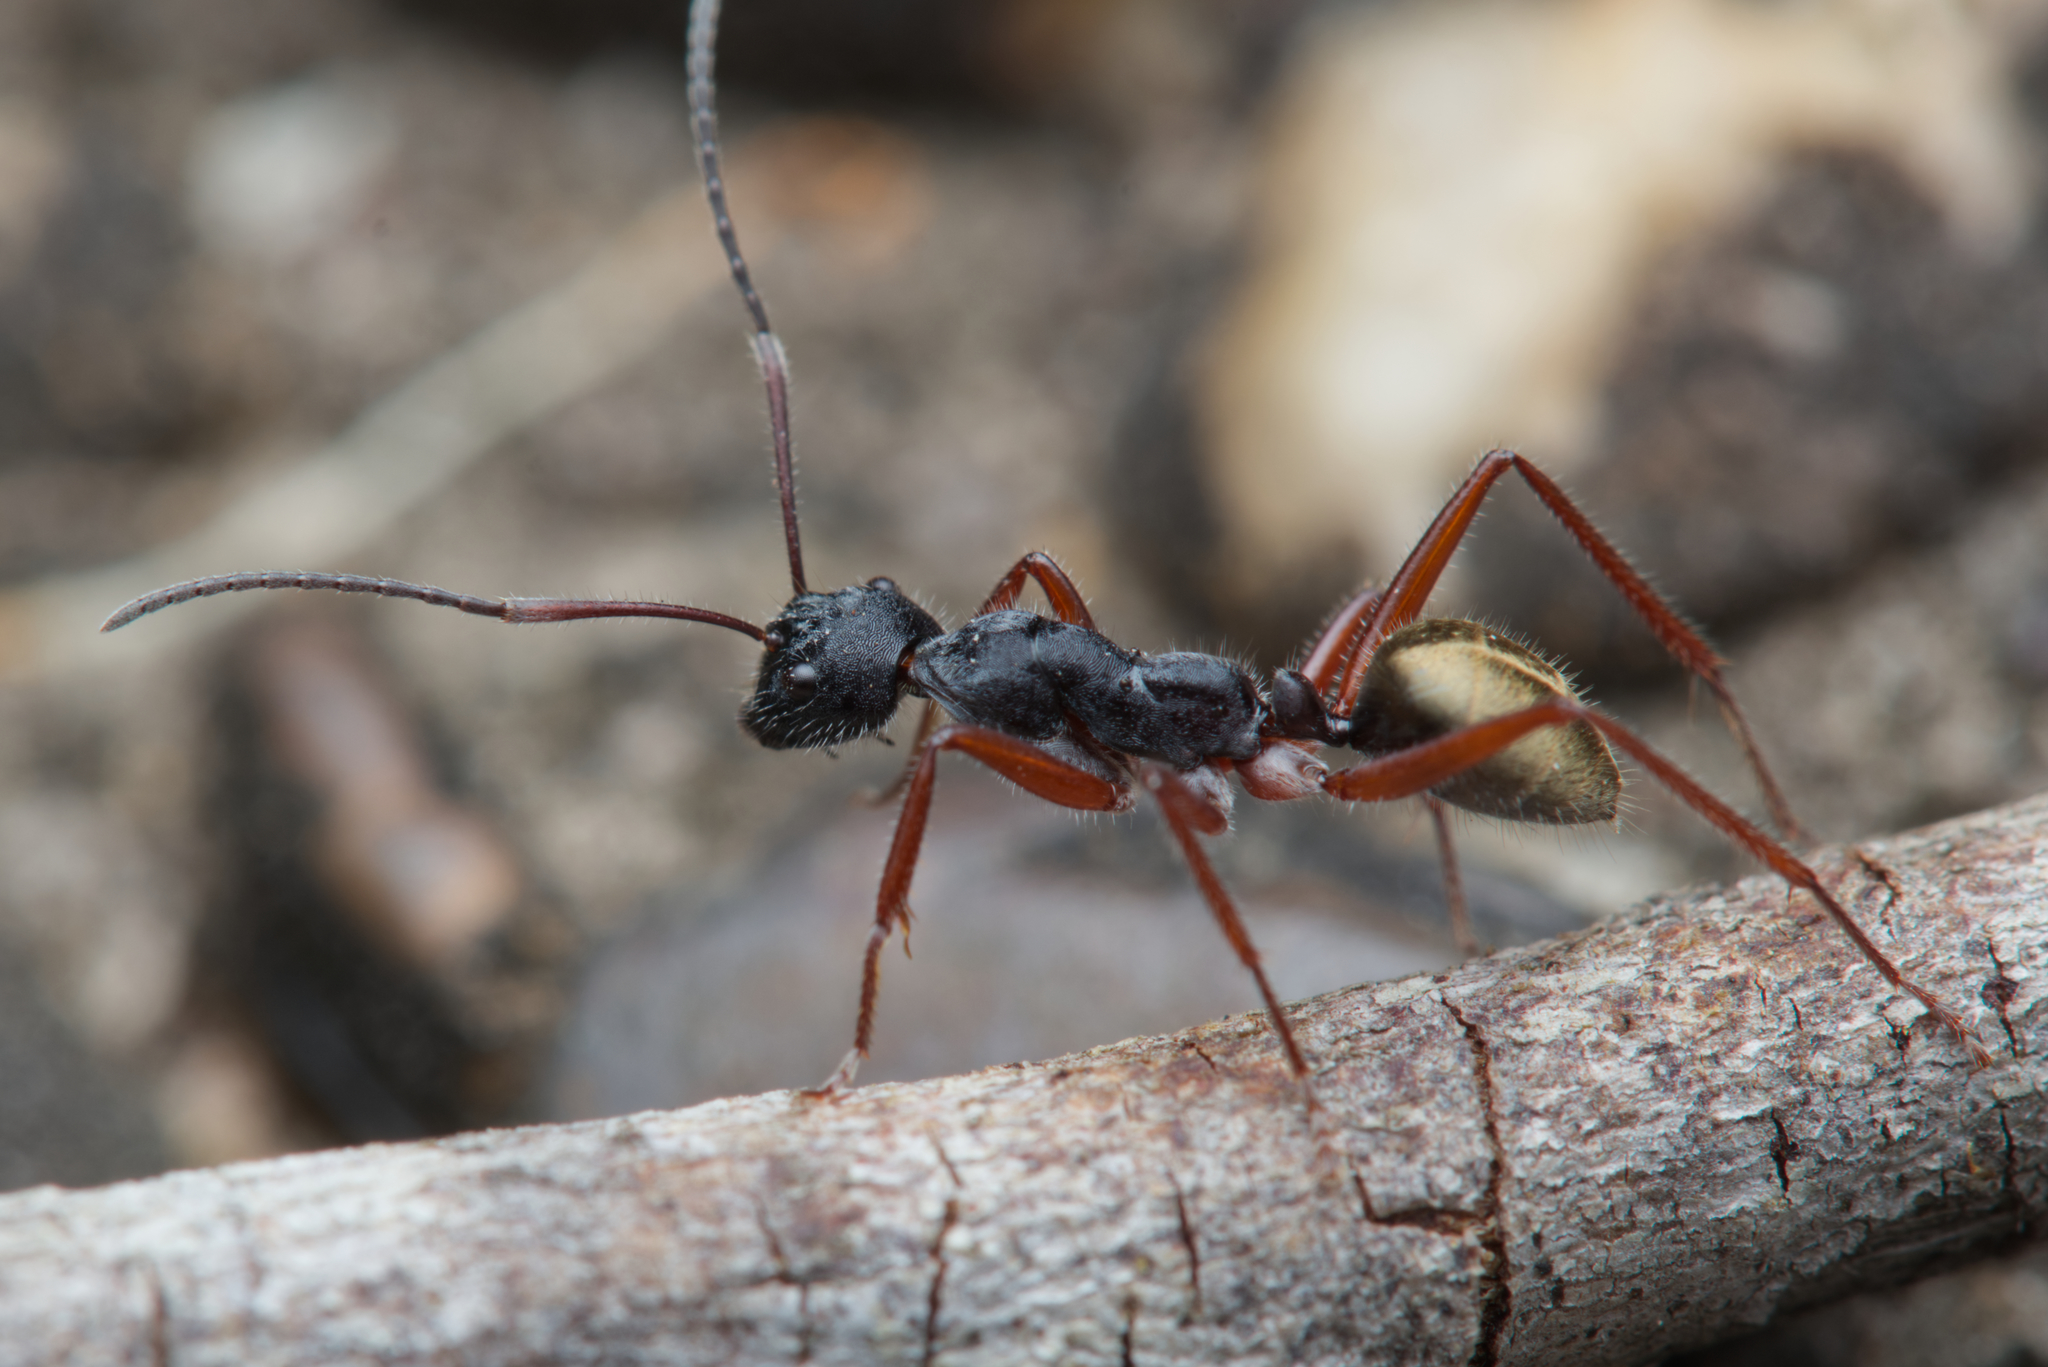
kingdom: Animalia
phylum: Arthropoda
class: Insecta
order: Hymenoptera
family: Formicidae
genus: Camponotus
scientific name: Camponotus suffusus
